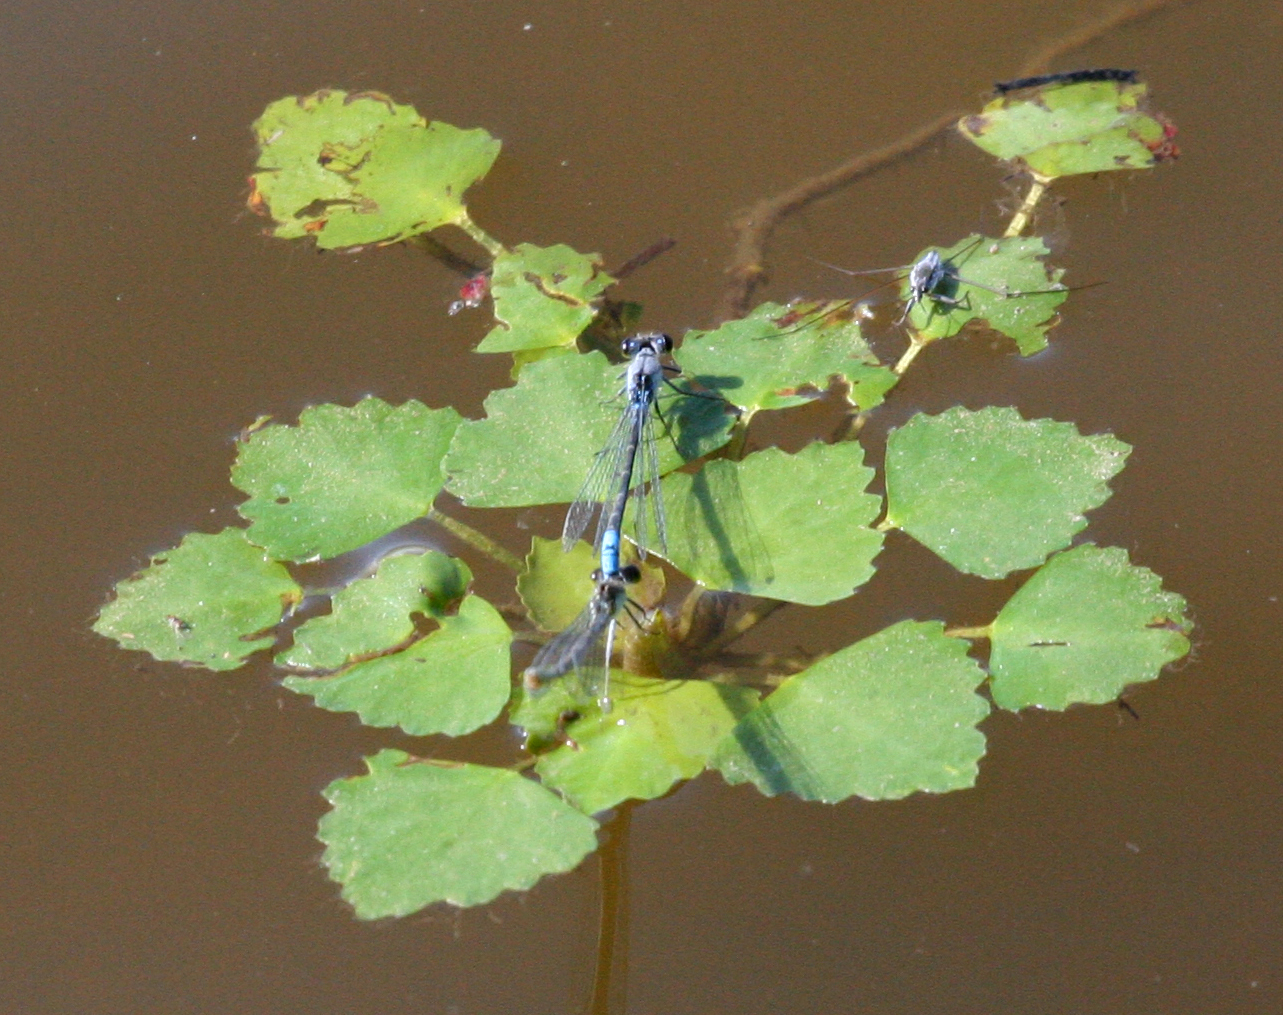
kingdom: Animalia
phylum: Arthropoda
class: Insecta
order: Odonata
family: Coenagrionidae
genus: Paracercion
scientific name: Paracercion calamorum
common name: Dusky lilysquatter
